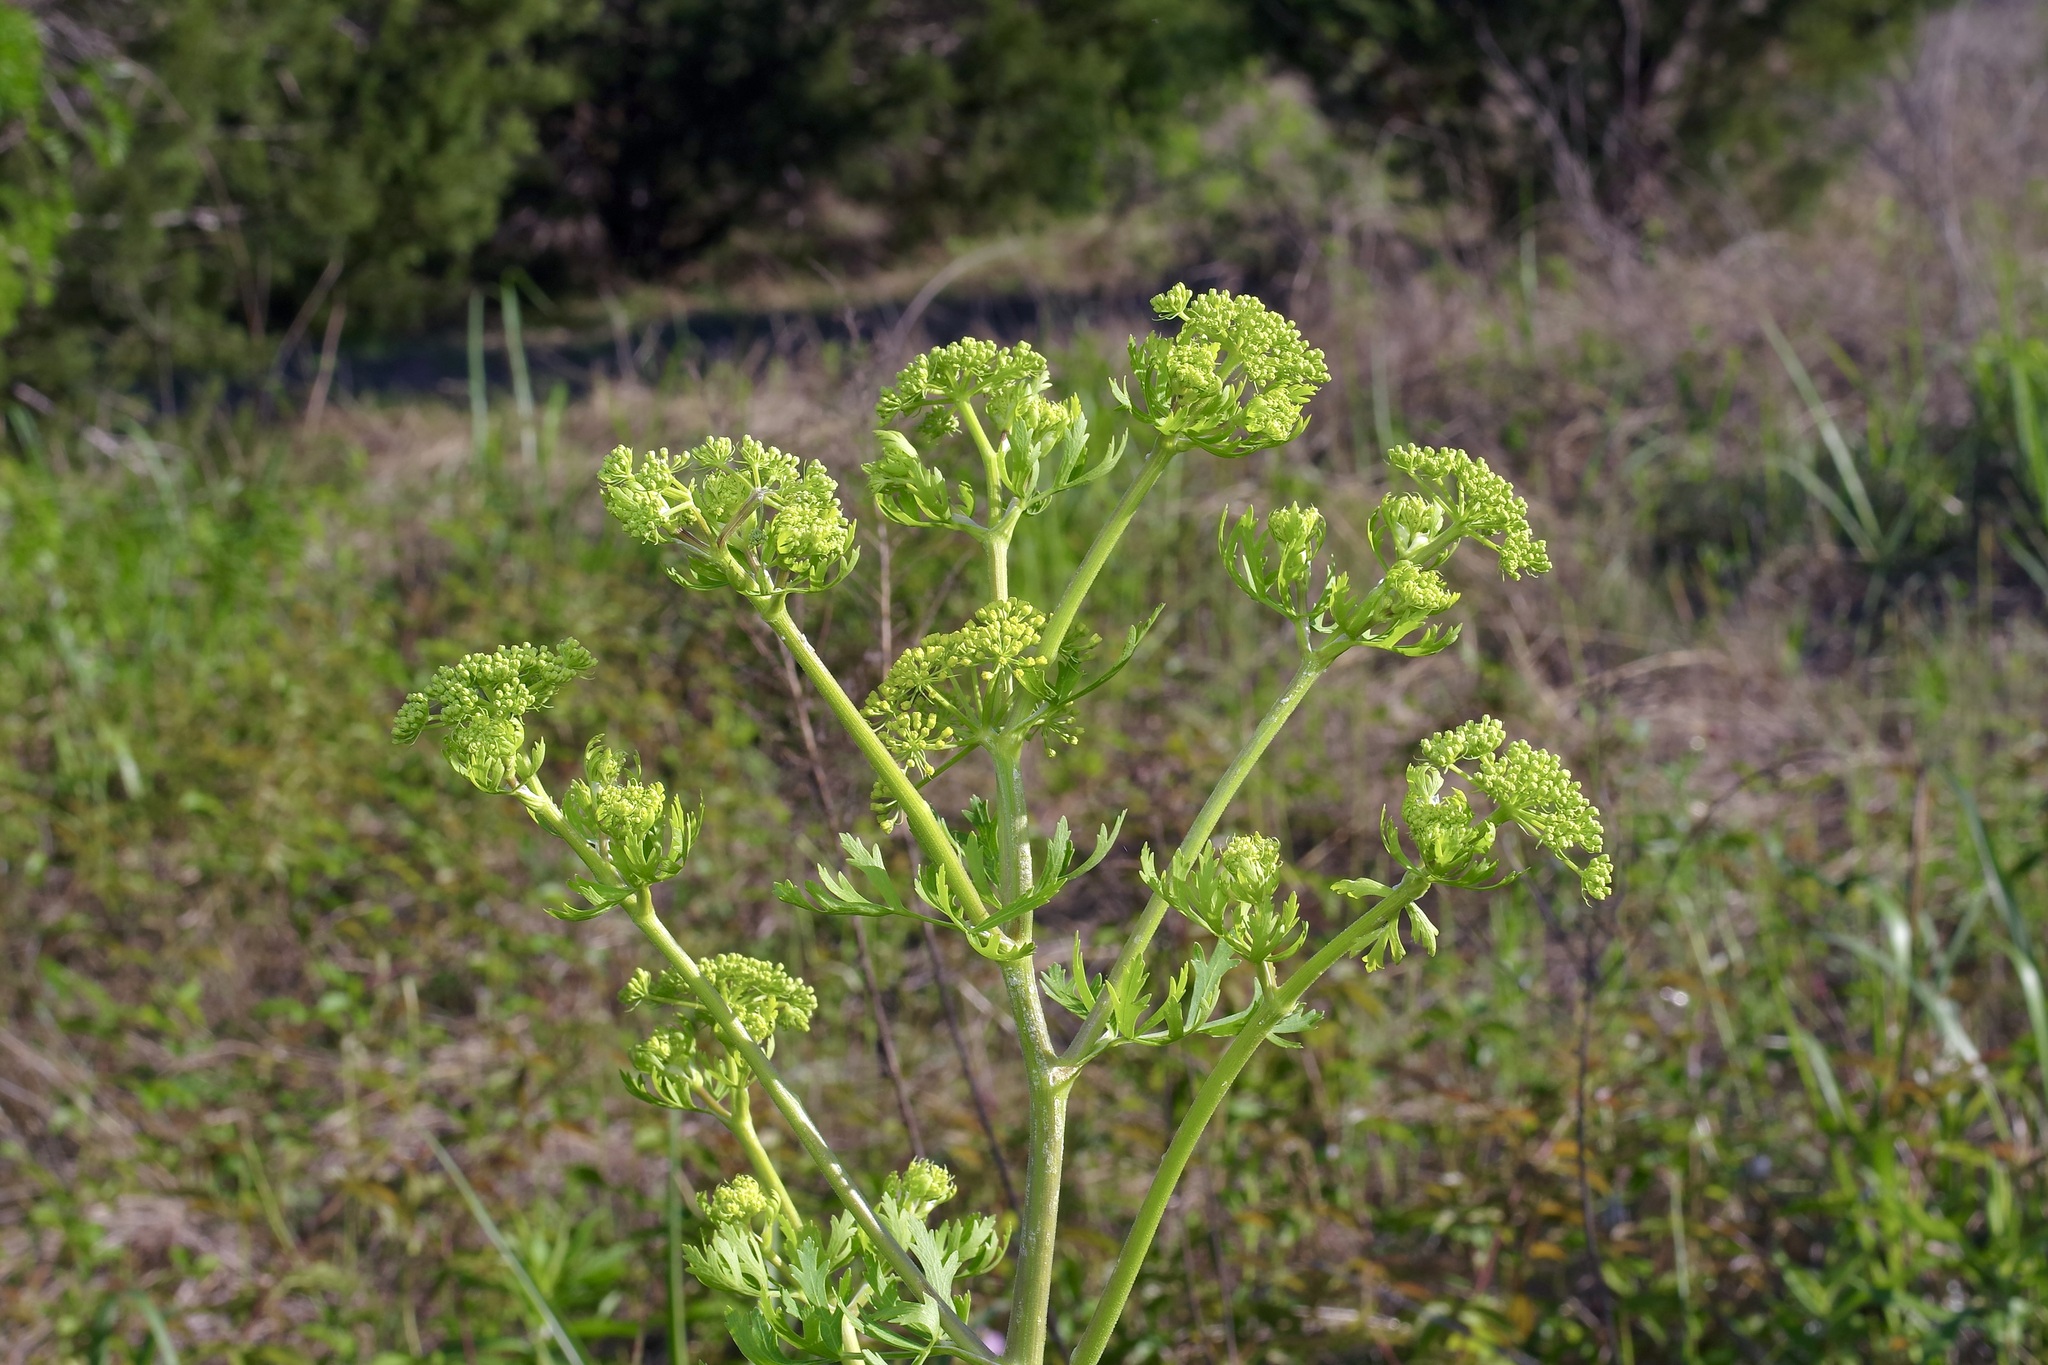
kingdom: Plantae
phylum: Tracheophyta
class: Magnoliopsida
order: Apiales
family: Apiaceae
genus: Polytaenia
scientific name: Polytaenia texana
